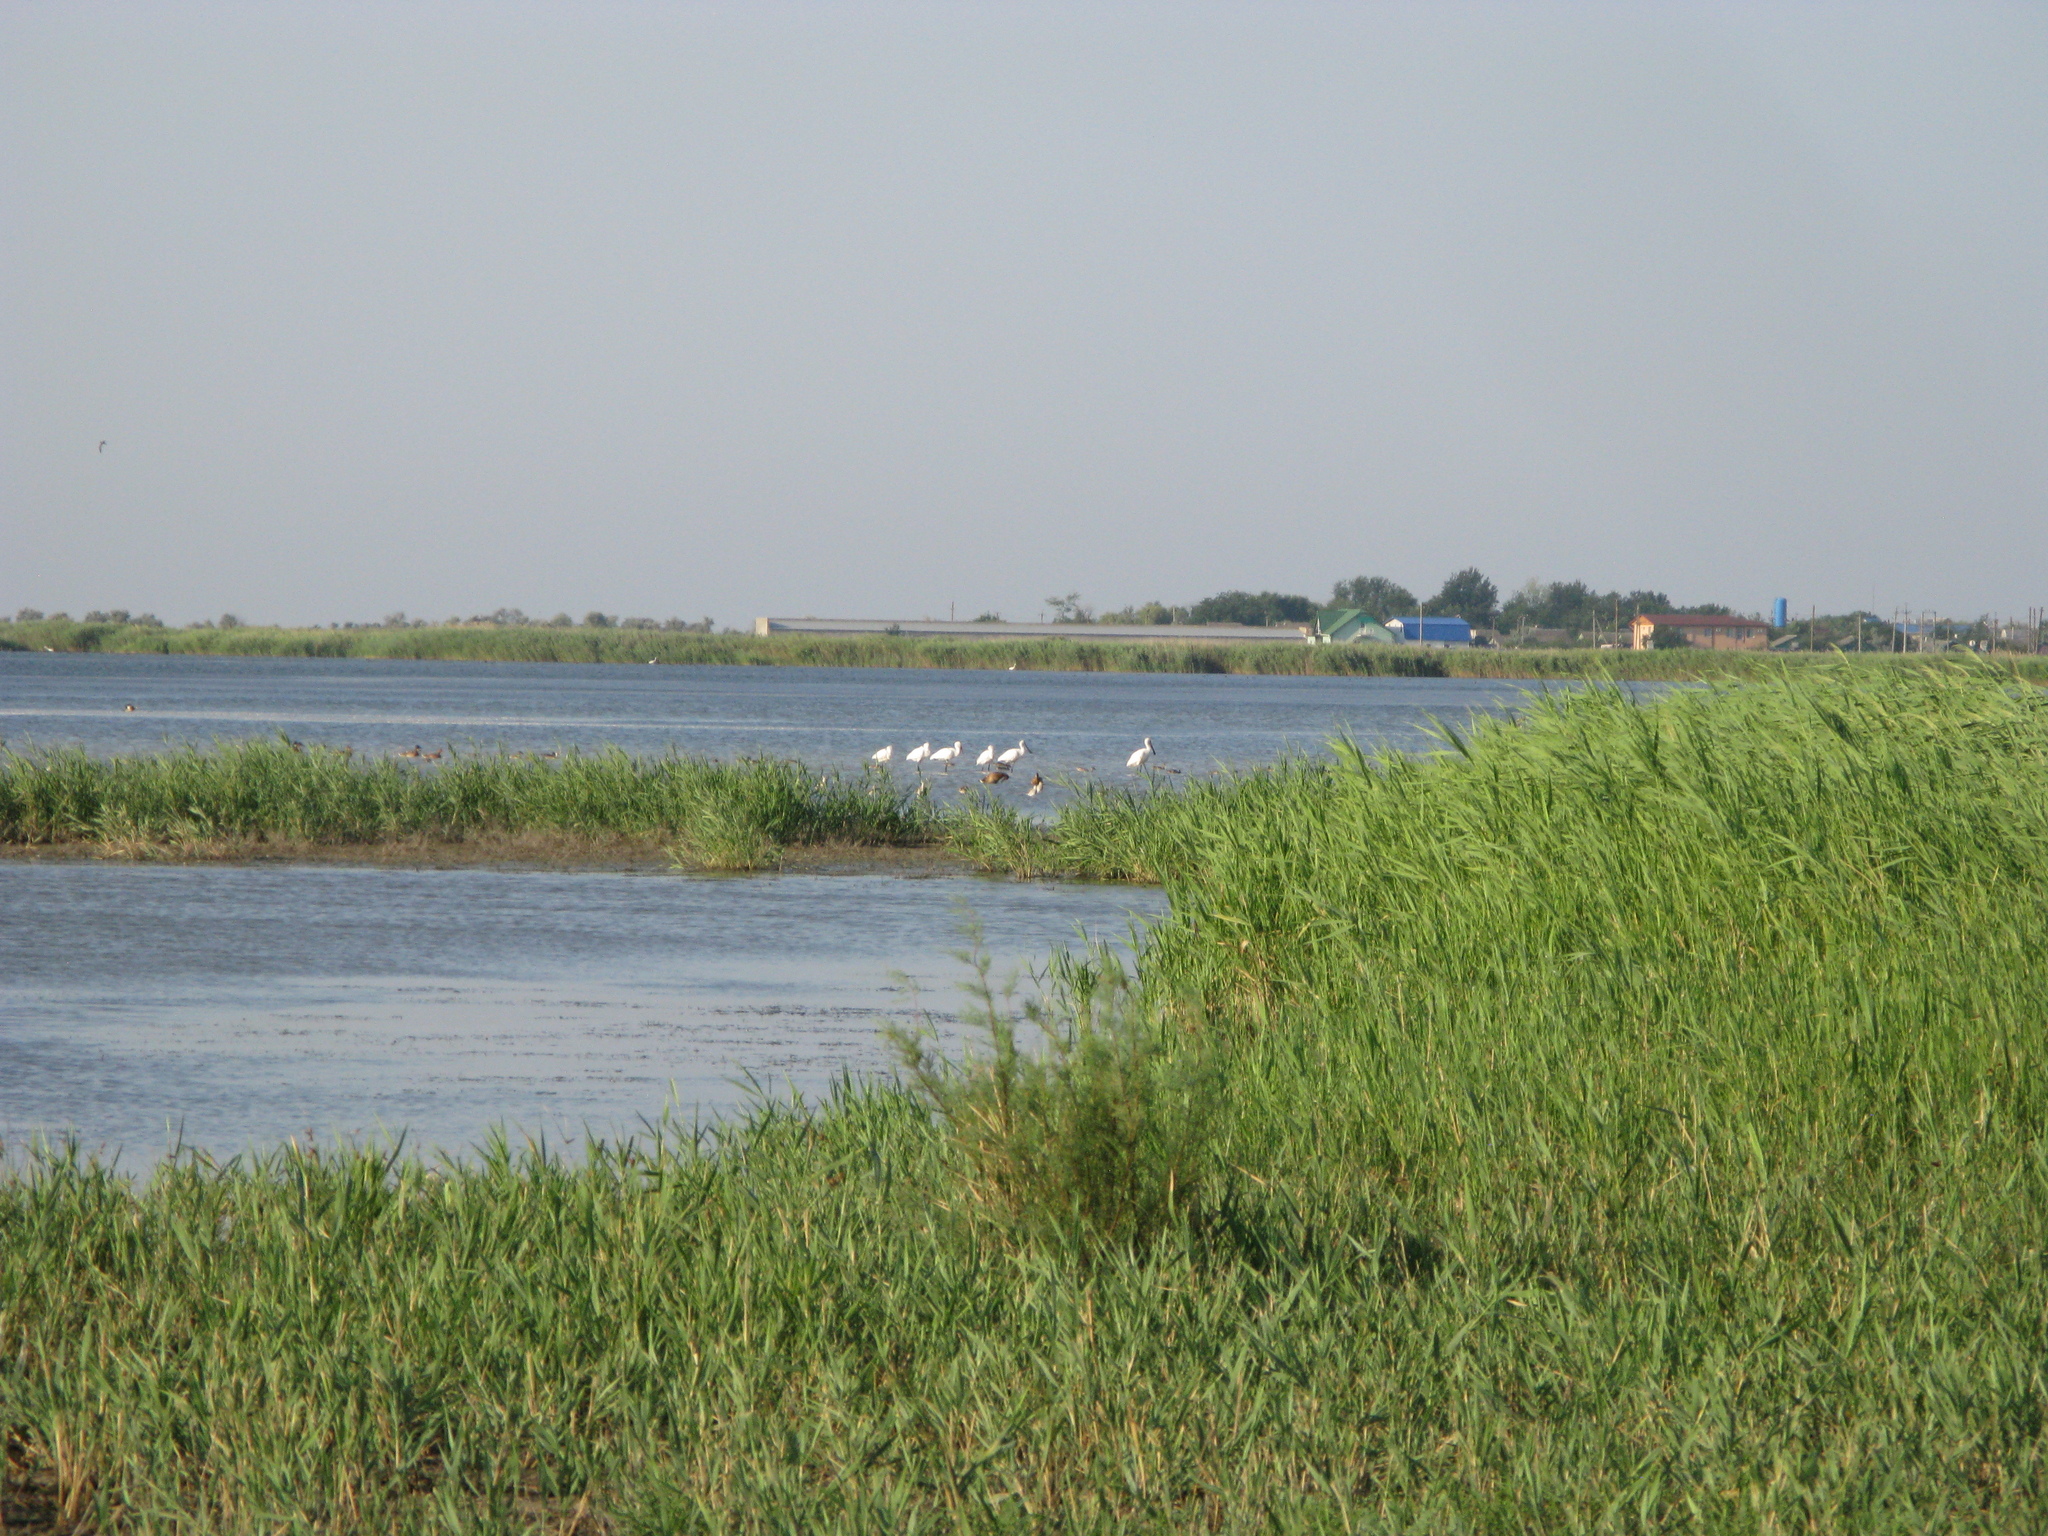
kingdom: Animalia
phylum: Chordata
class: Aves
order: Pelecaniformes
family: Threskiornithidae
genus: Platalea
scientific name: Platalea leucorodia
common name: Eurasian spoonbill
